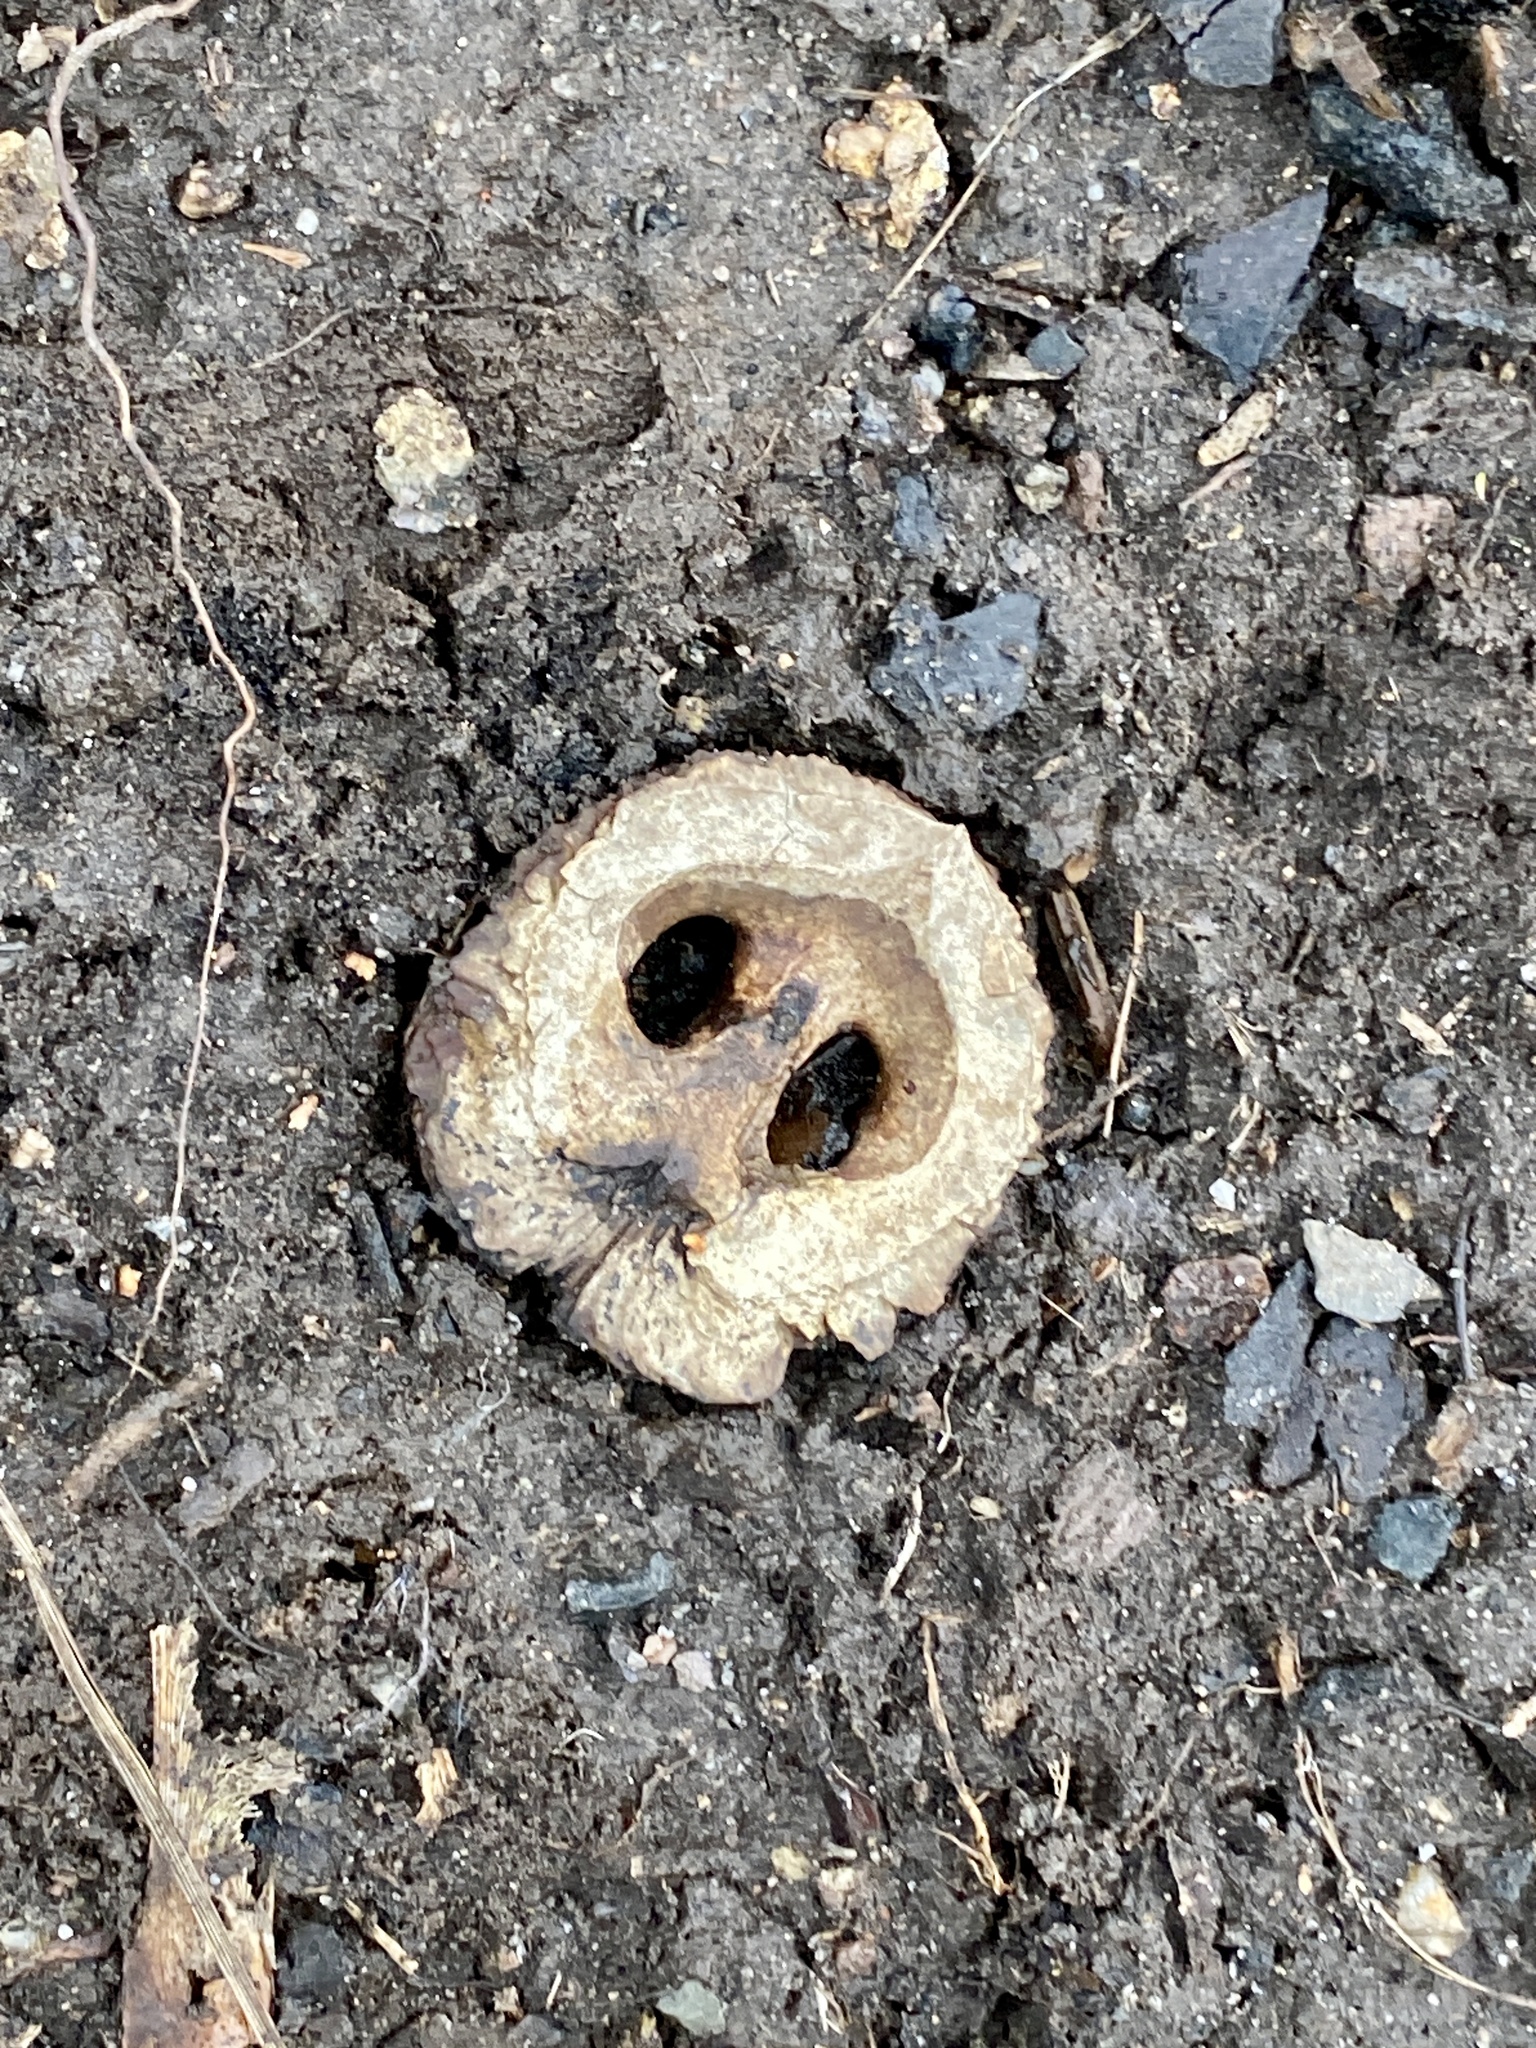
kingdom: Plantae
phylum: Tracheophyta
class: Magnoliopsida
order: Fagales
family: Juglandaceae
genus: Juglans
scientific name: Juglans nigra
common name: Black walnut
